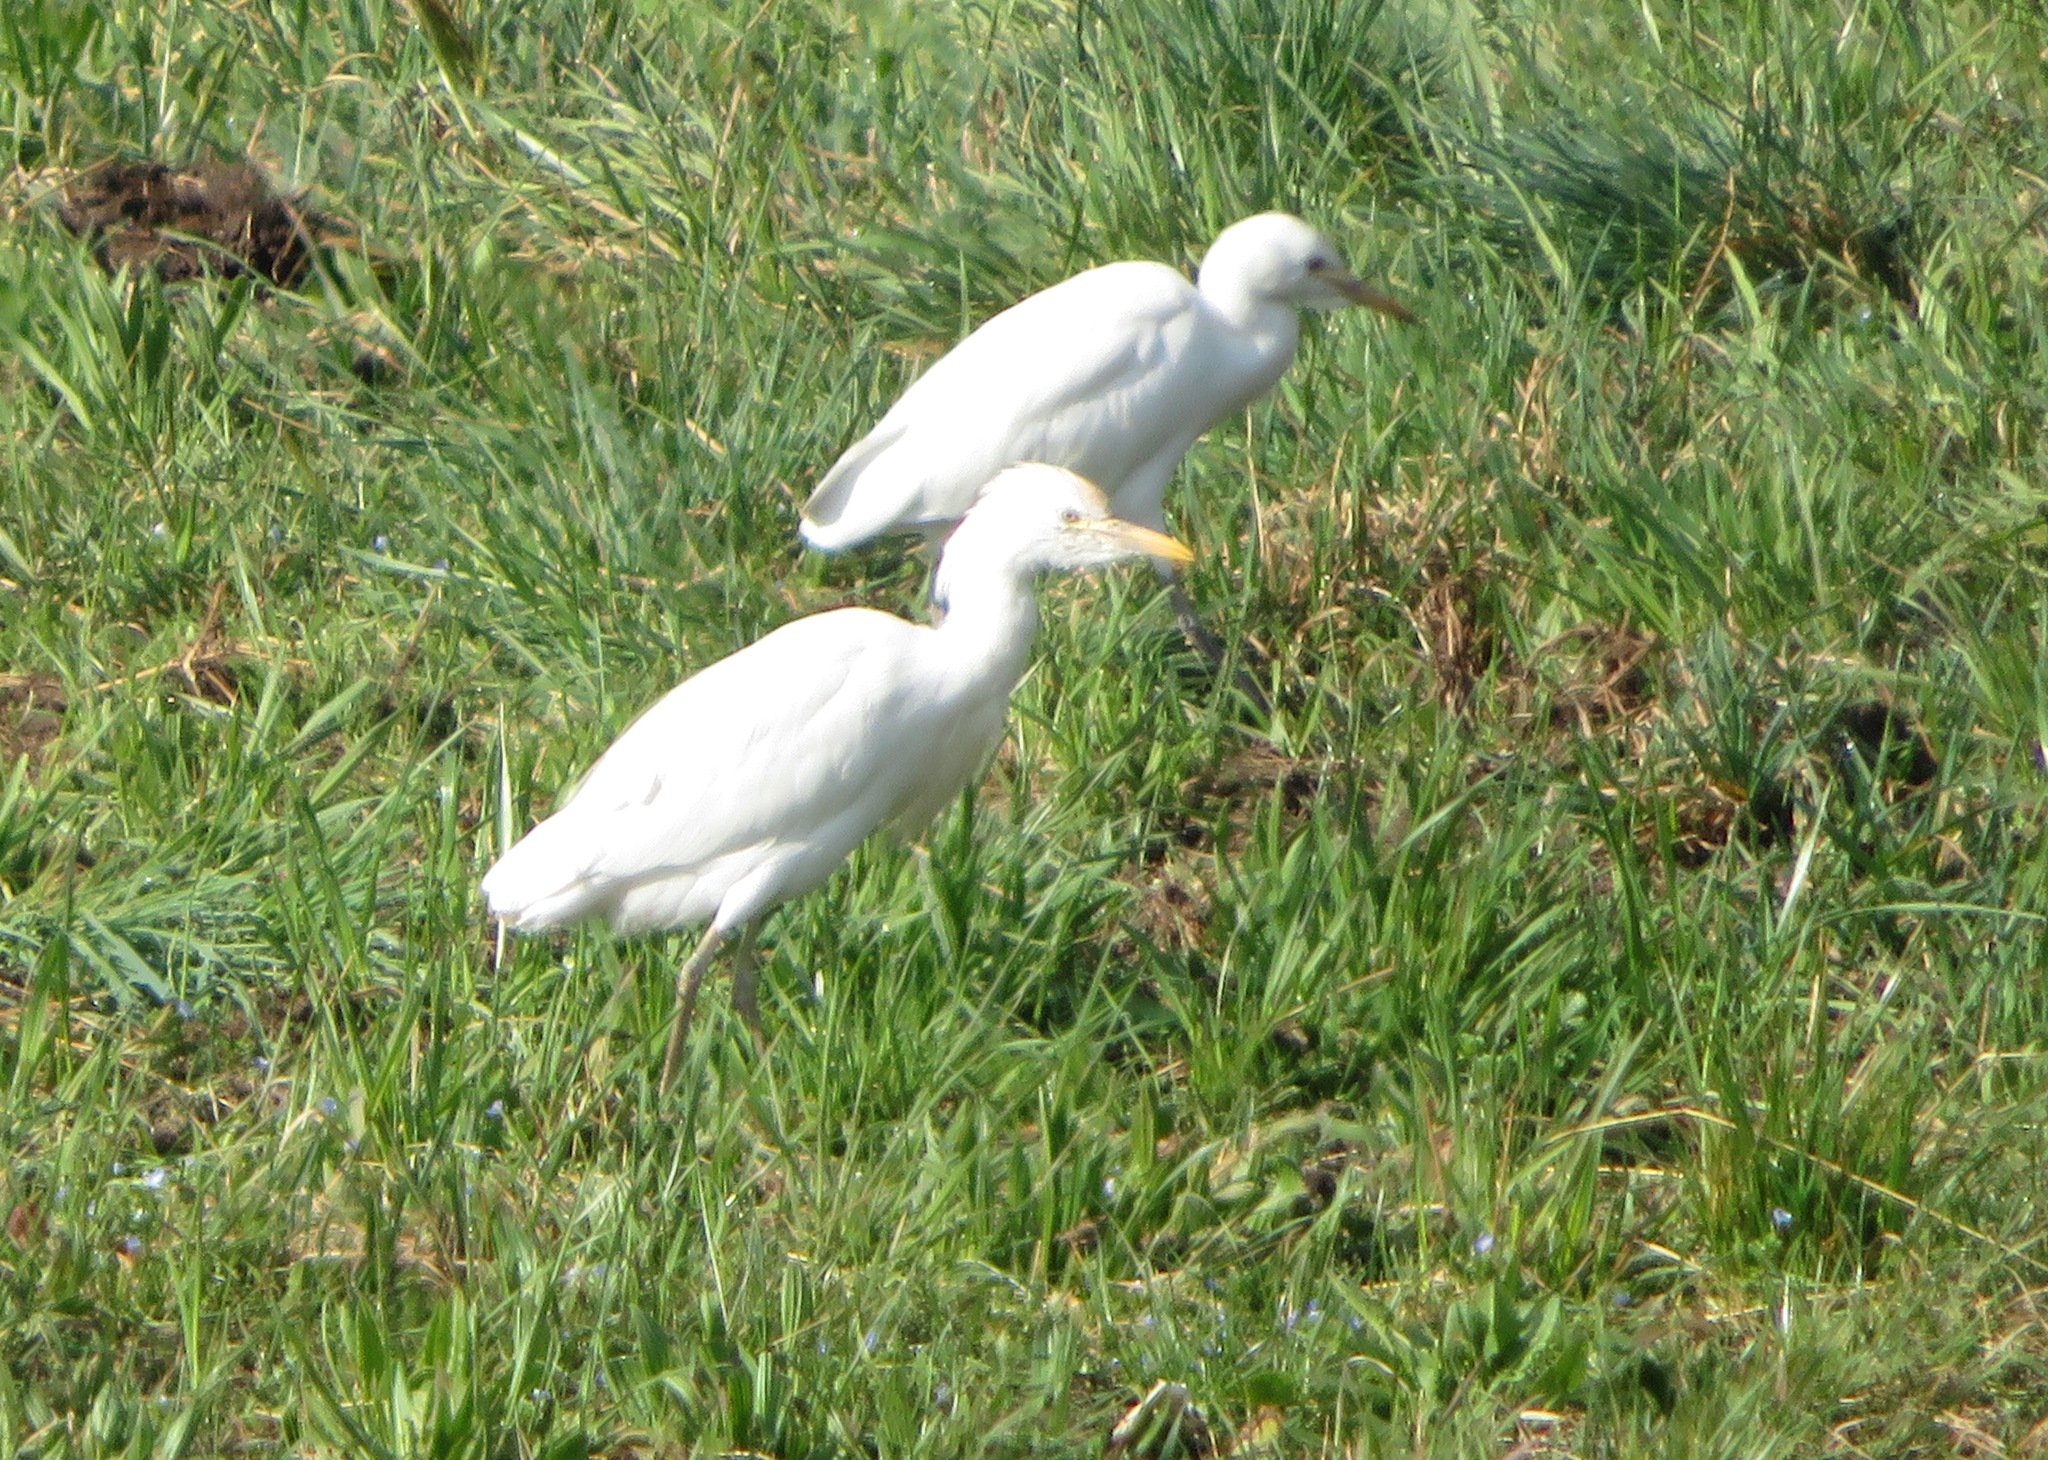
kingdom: Animalia
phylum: Chordata
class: Aves
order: Pelecaniformes
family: Ardeidae
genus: Bubulcus
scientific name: Bubulcus ibis
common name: Cattle egret
